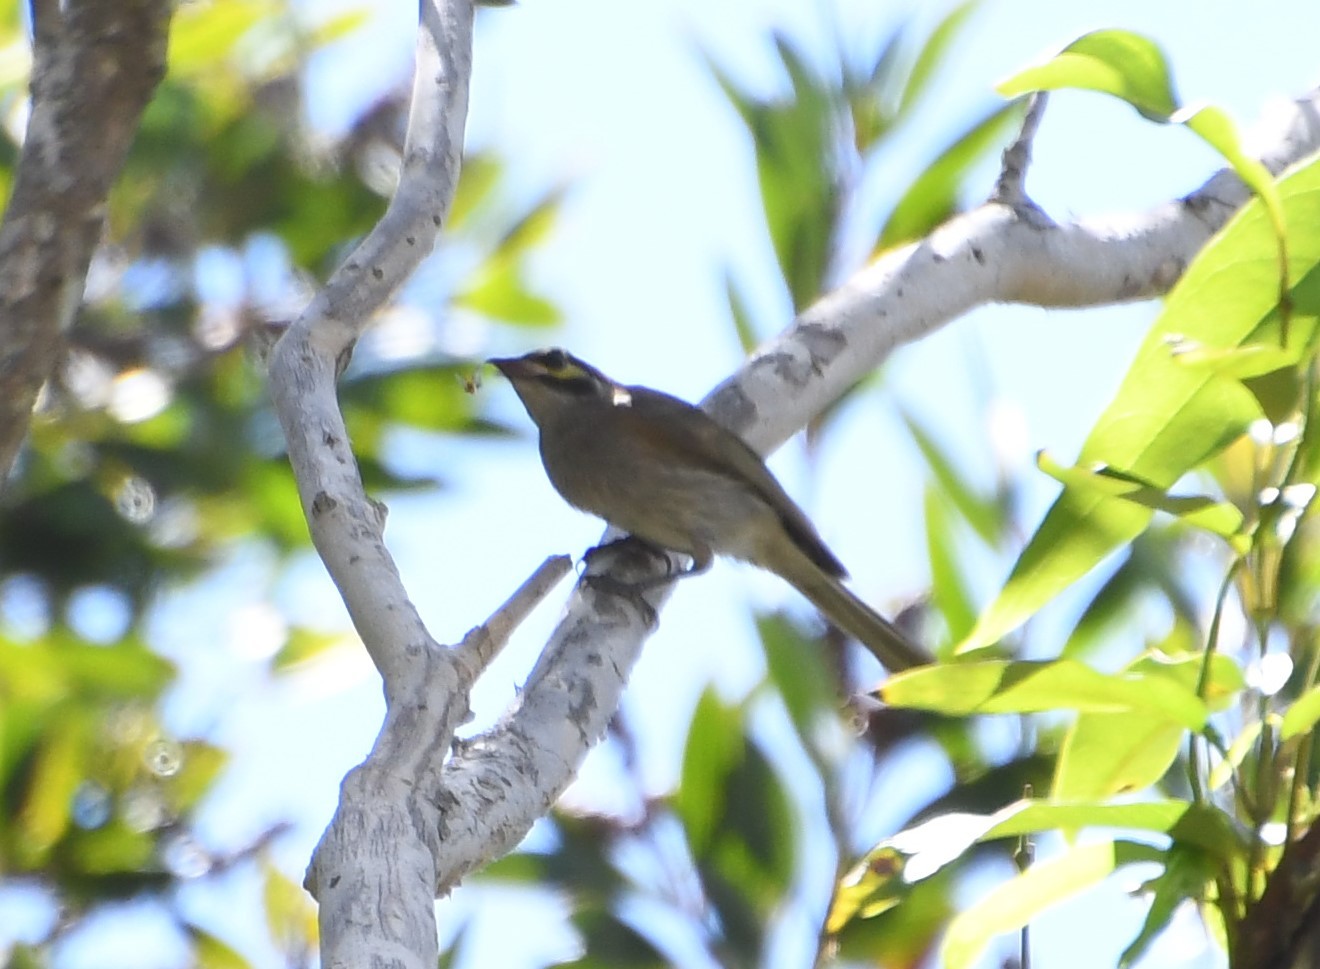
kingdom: Animalia
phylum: Chordata
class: Aves
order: Passeriformes
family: Meliphagidae
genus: Caligavis
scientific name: Caligavis chrysops
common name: Yellow-faced honeyeater
